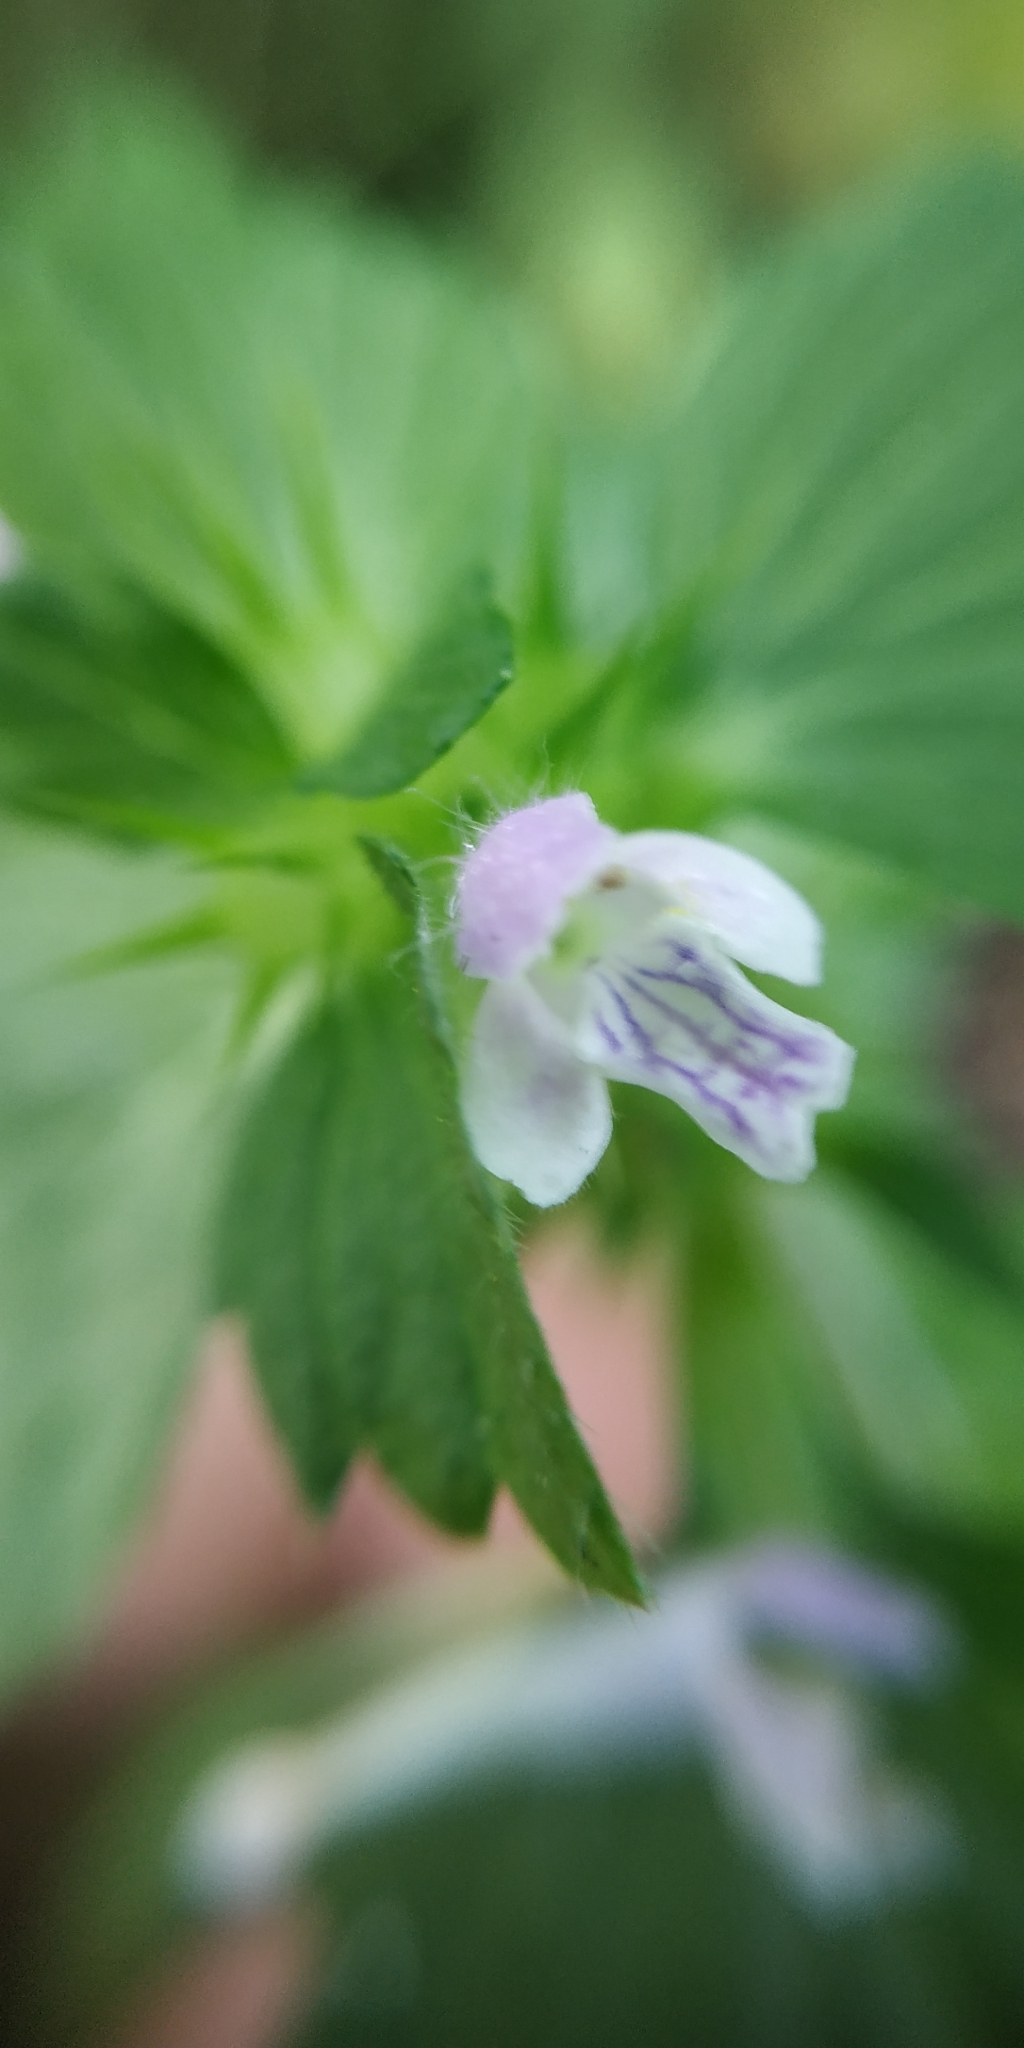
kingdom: Plantae
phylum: Tracheophyta
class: Magnoliopsida
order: Lamiales
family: Lamiaceae
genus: Galeopsis
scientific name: Galeopsis bifida
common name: Bifid hemp-nettle
